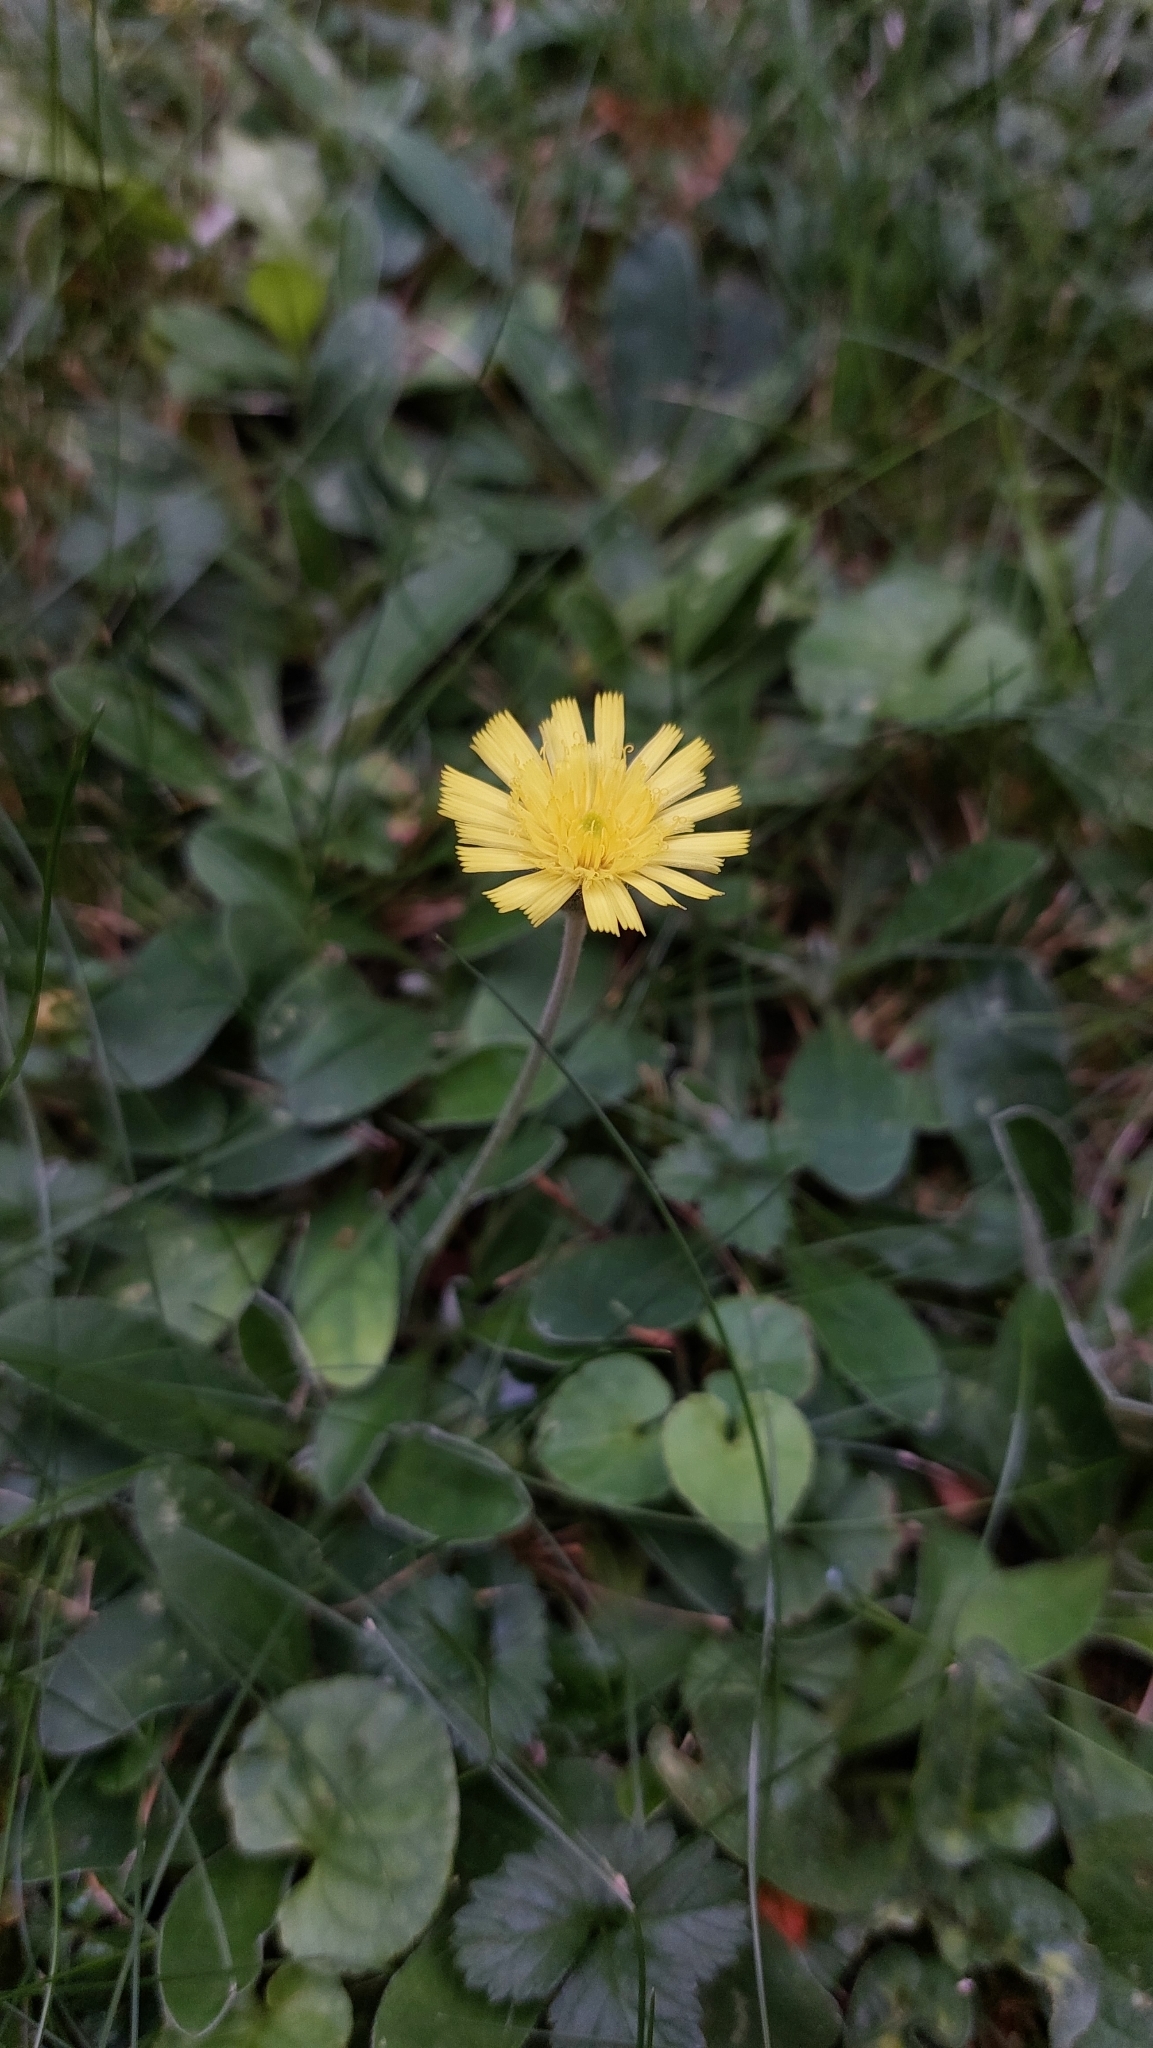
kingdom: Plantae
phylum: Tracheophyta
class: Magnoliopsida
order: Asterales
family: Asteraceae
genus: Pilosella
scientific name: Pilosella officinarum
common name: Mouse-ear hawkweed
